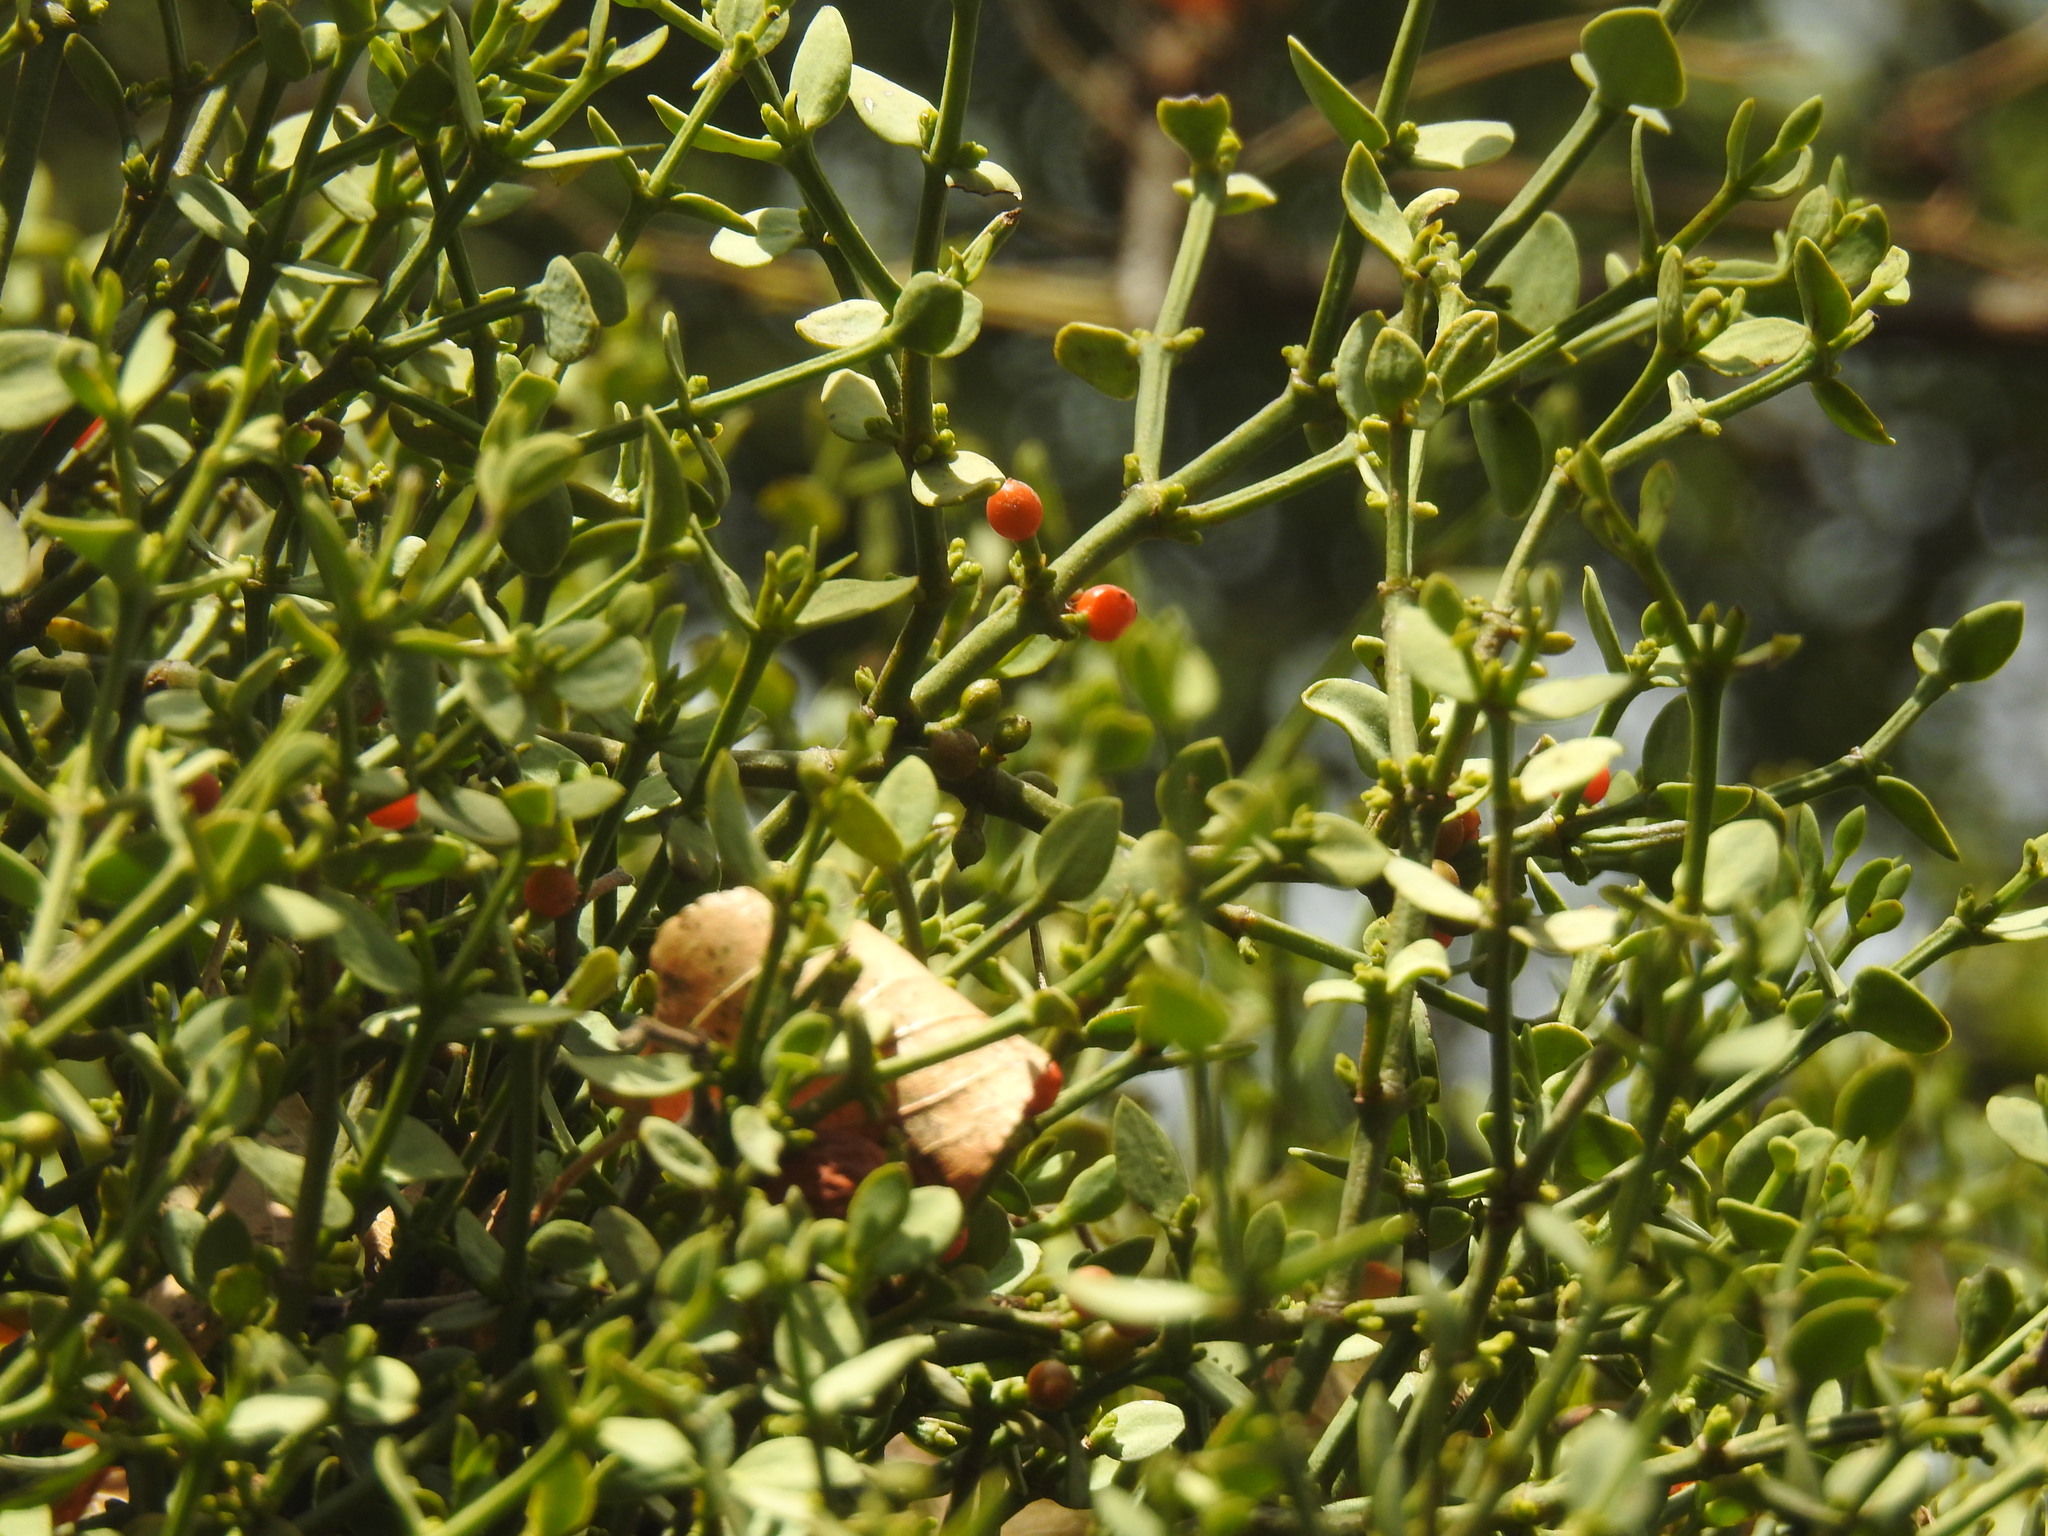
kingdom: Plantae
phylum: Tracheophyta
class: Magnoliopsida
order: Santalales
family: Viscaceae
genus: Viscum
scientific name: Viscum rotundifolium
